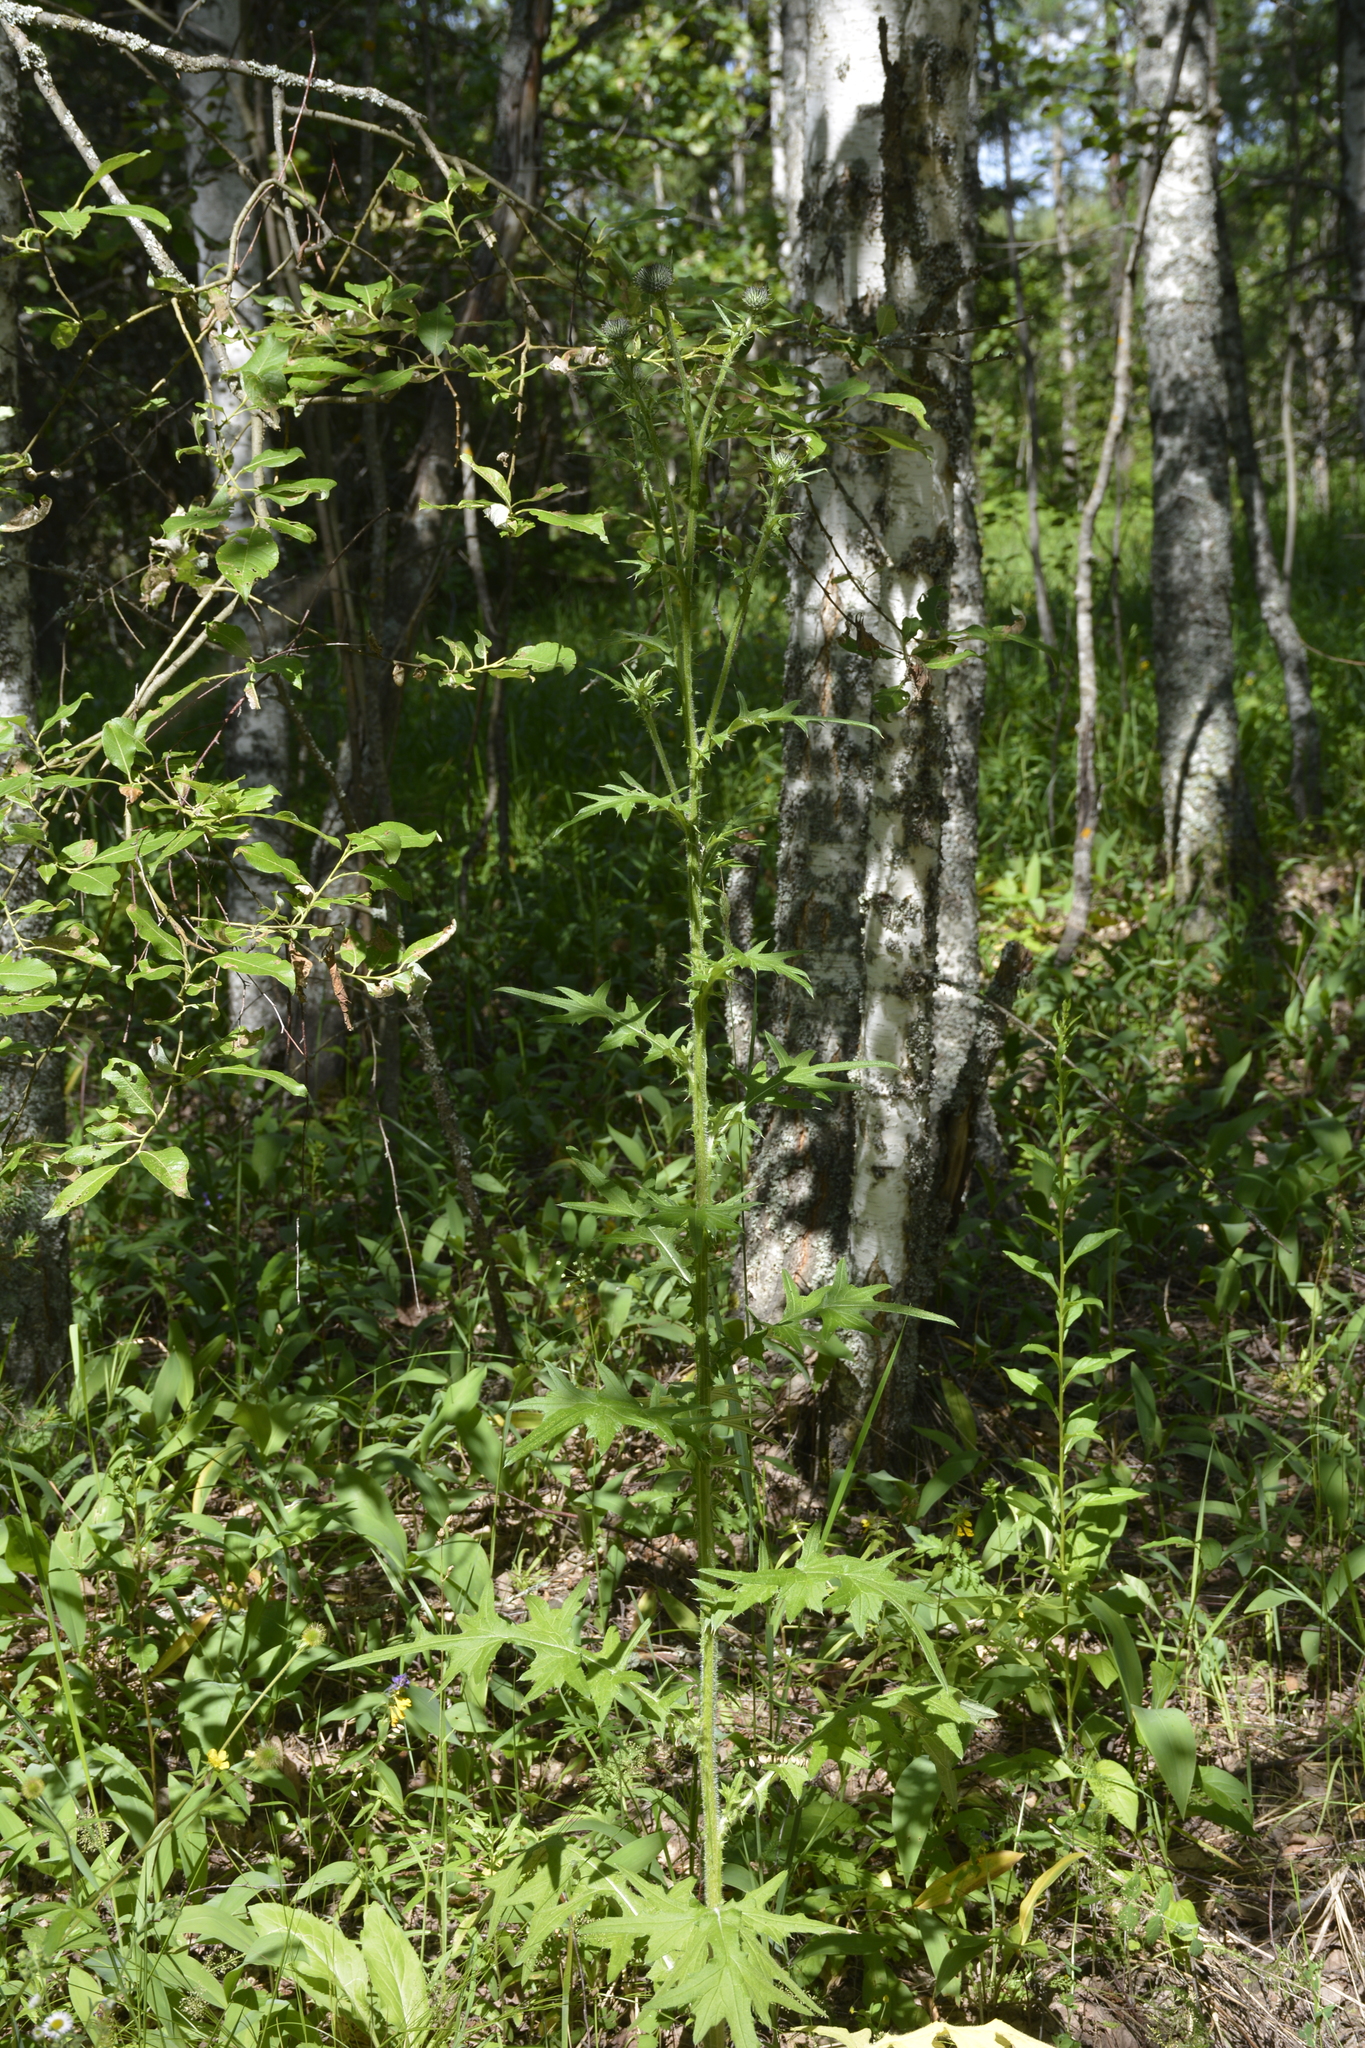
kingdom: Plantae
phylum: Tracheophyta
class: Magnoliopsida
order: Asterales
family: Asteraceae
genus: Cirsium
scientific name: Cirsium vulgare
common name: Bull thistle
